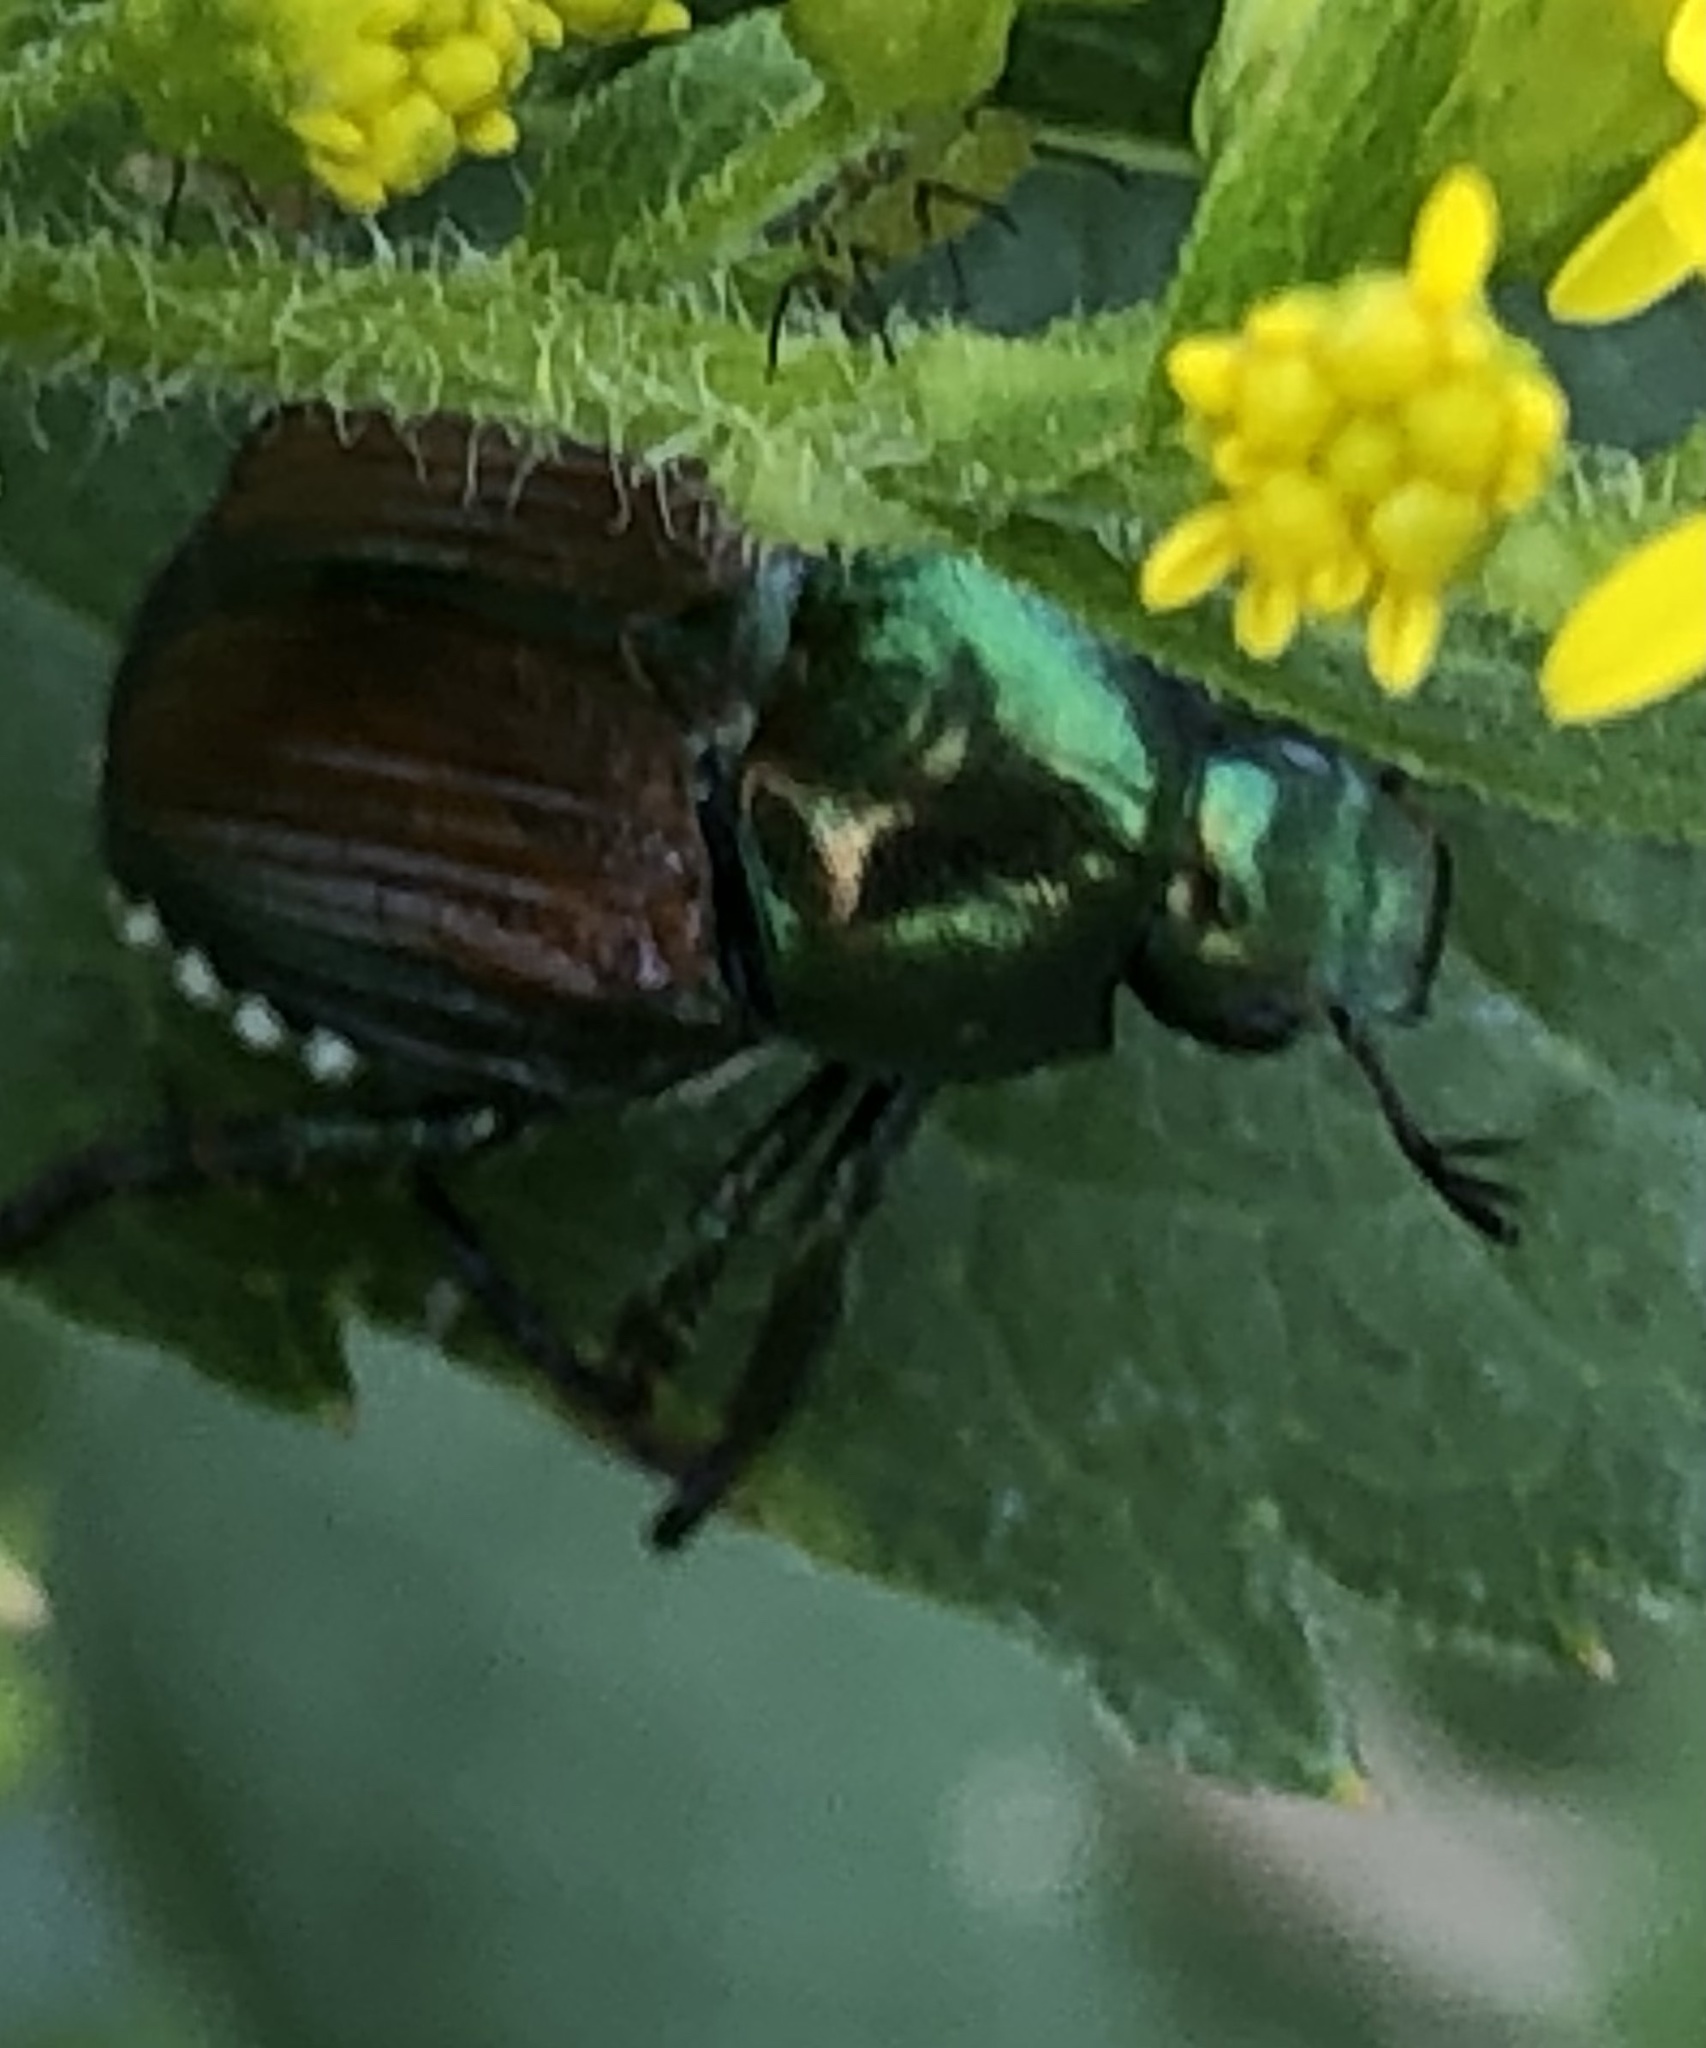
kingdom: Animalia
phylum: Arthropoda
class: Insecta
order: Coleoptera
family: Scarabaeidae
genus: Popillia
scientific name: Popillia japonica
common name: Japanese beetle
